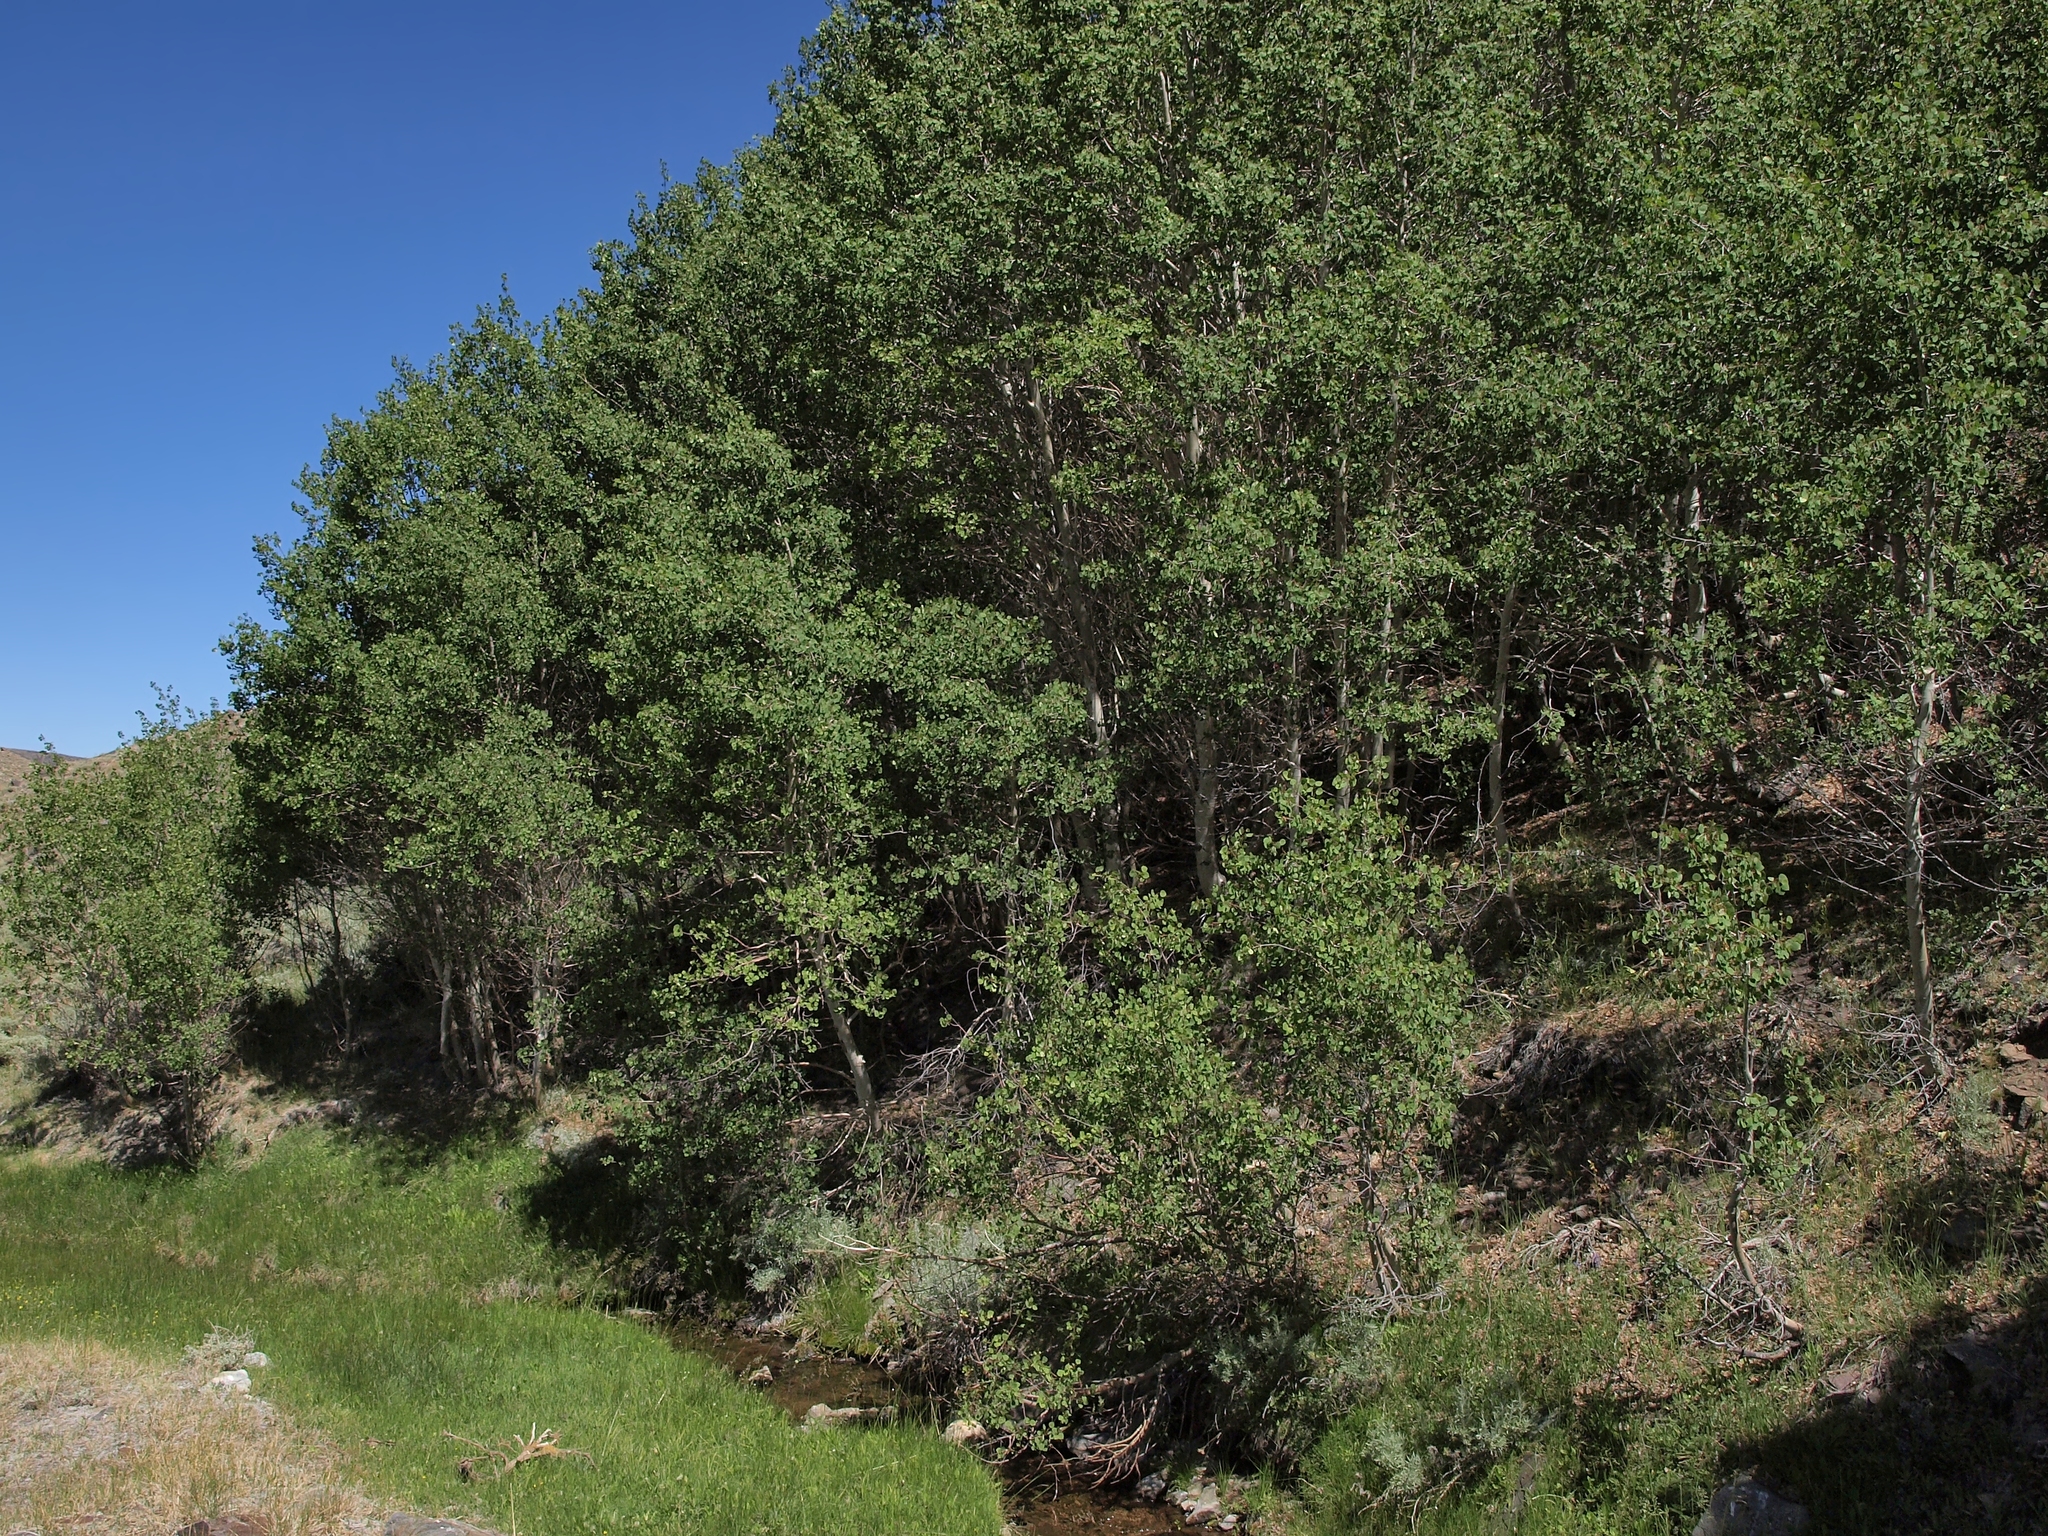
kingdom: Plantae
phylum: Tracheophyta
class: Magnoliopsida
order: Malpighiales
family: Salicaceae
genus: Populus
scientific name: Populus tremuloides
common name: Quaking aspen
